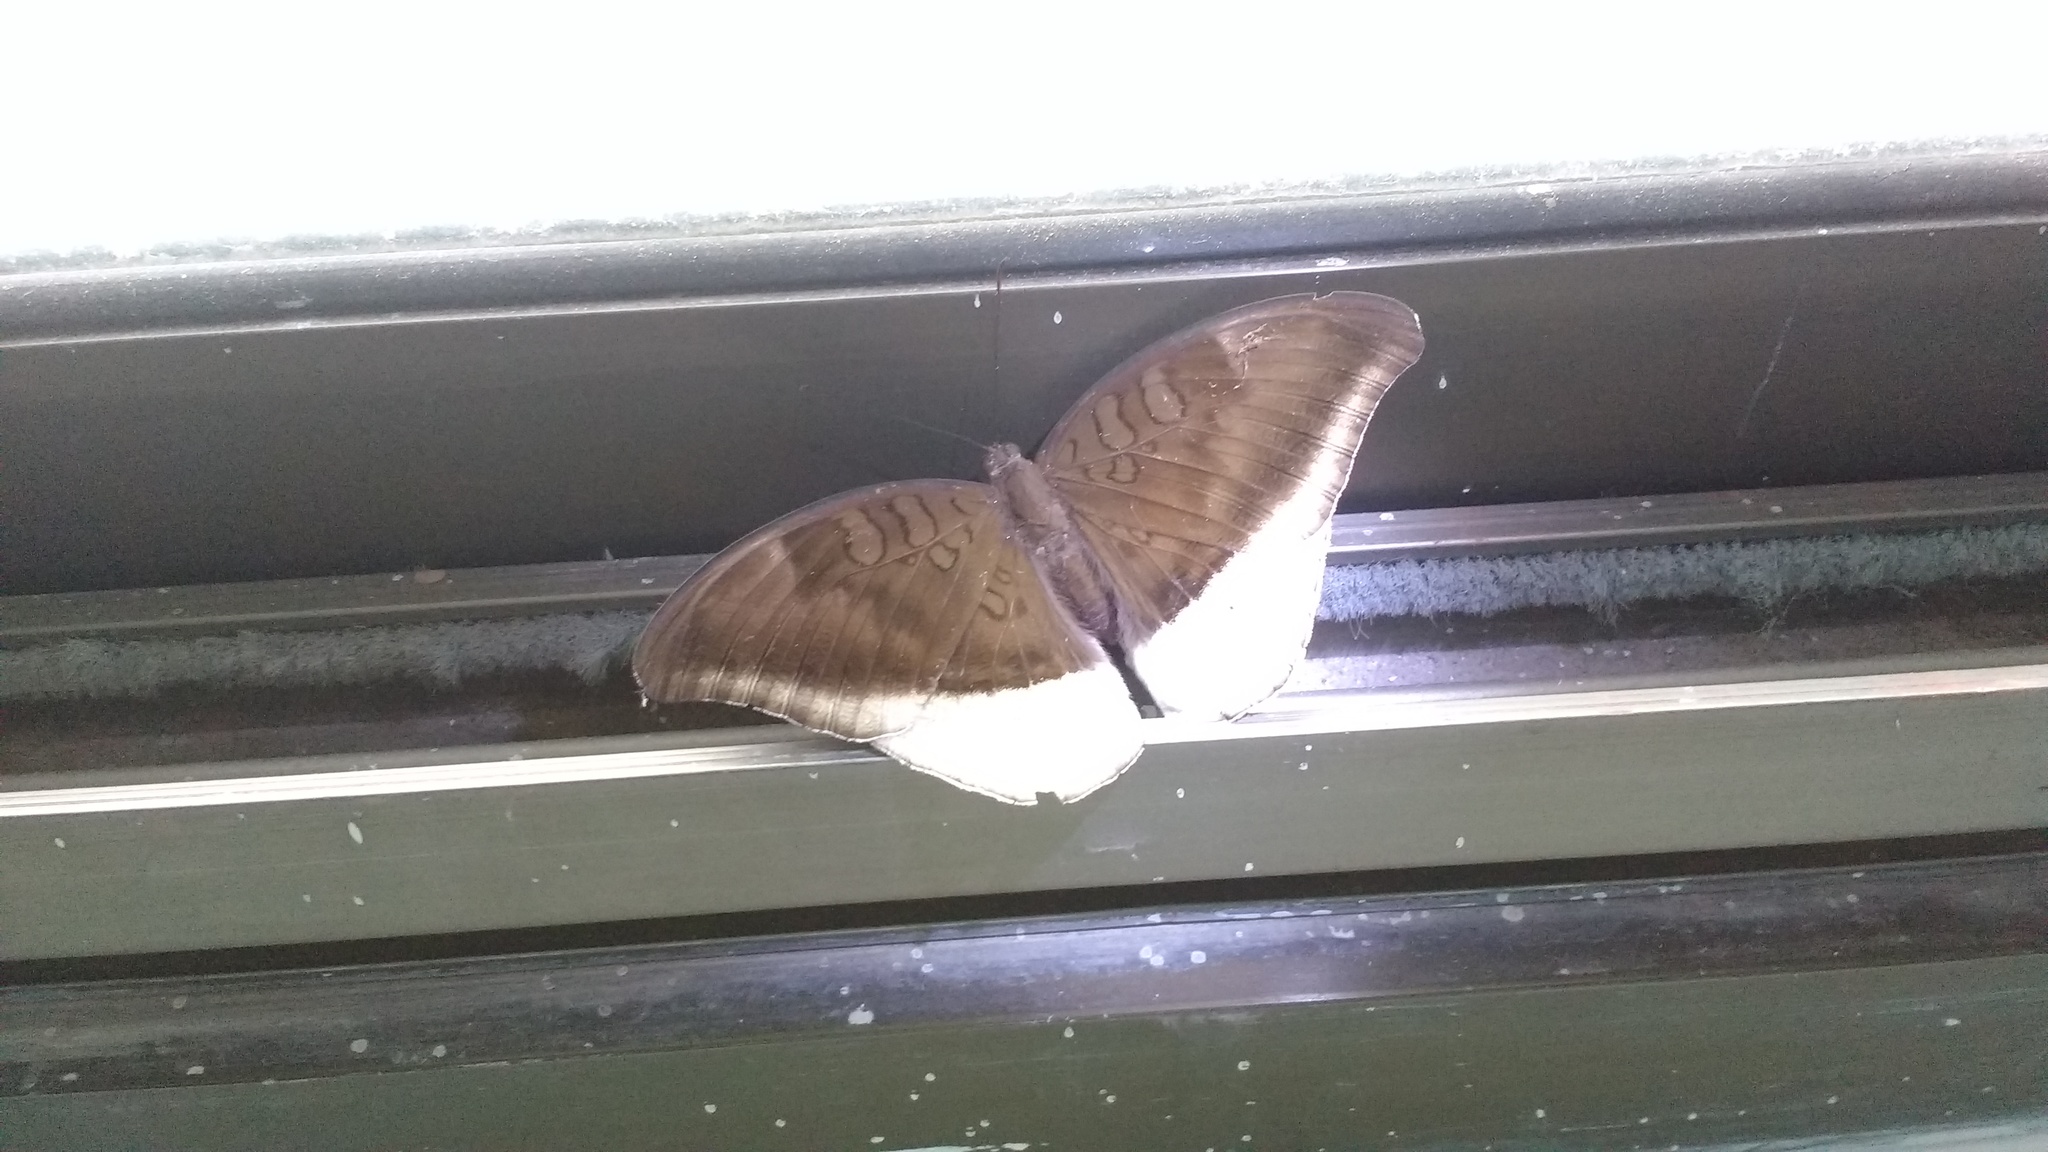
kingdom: Animalia
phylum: Arthropoda
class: Insecta
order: Lepidoptera
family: Nymphalidae
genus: Tanaecia
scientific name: Tanaecia lepidea
